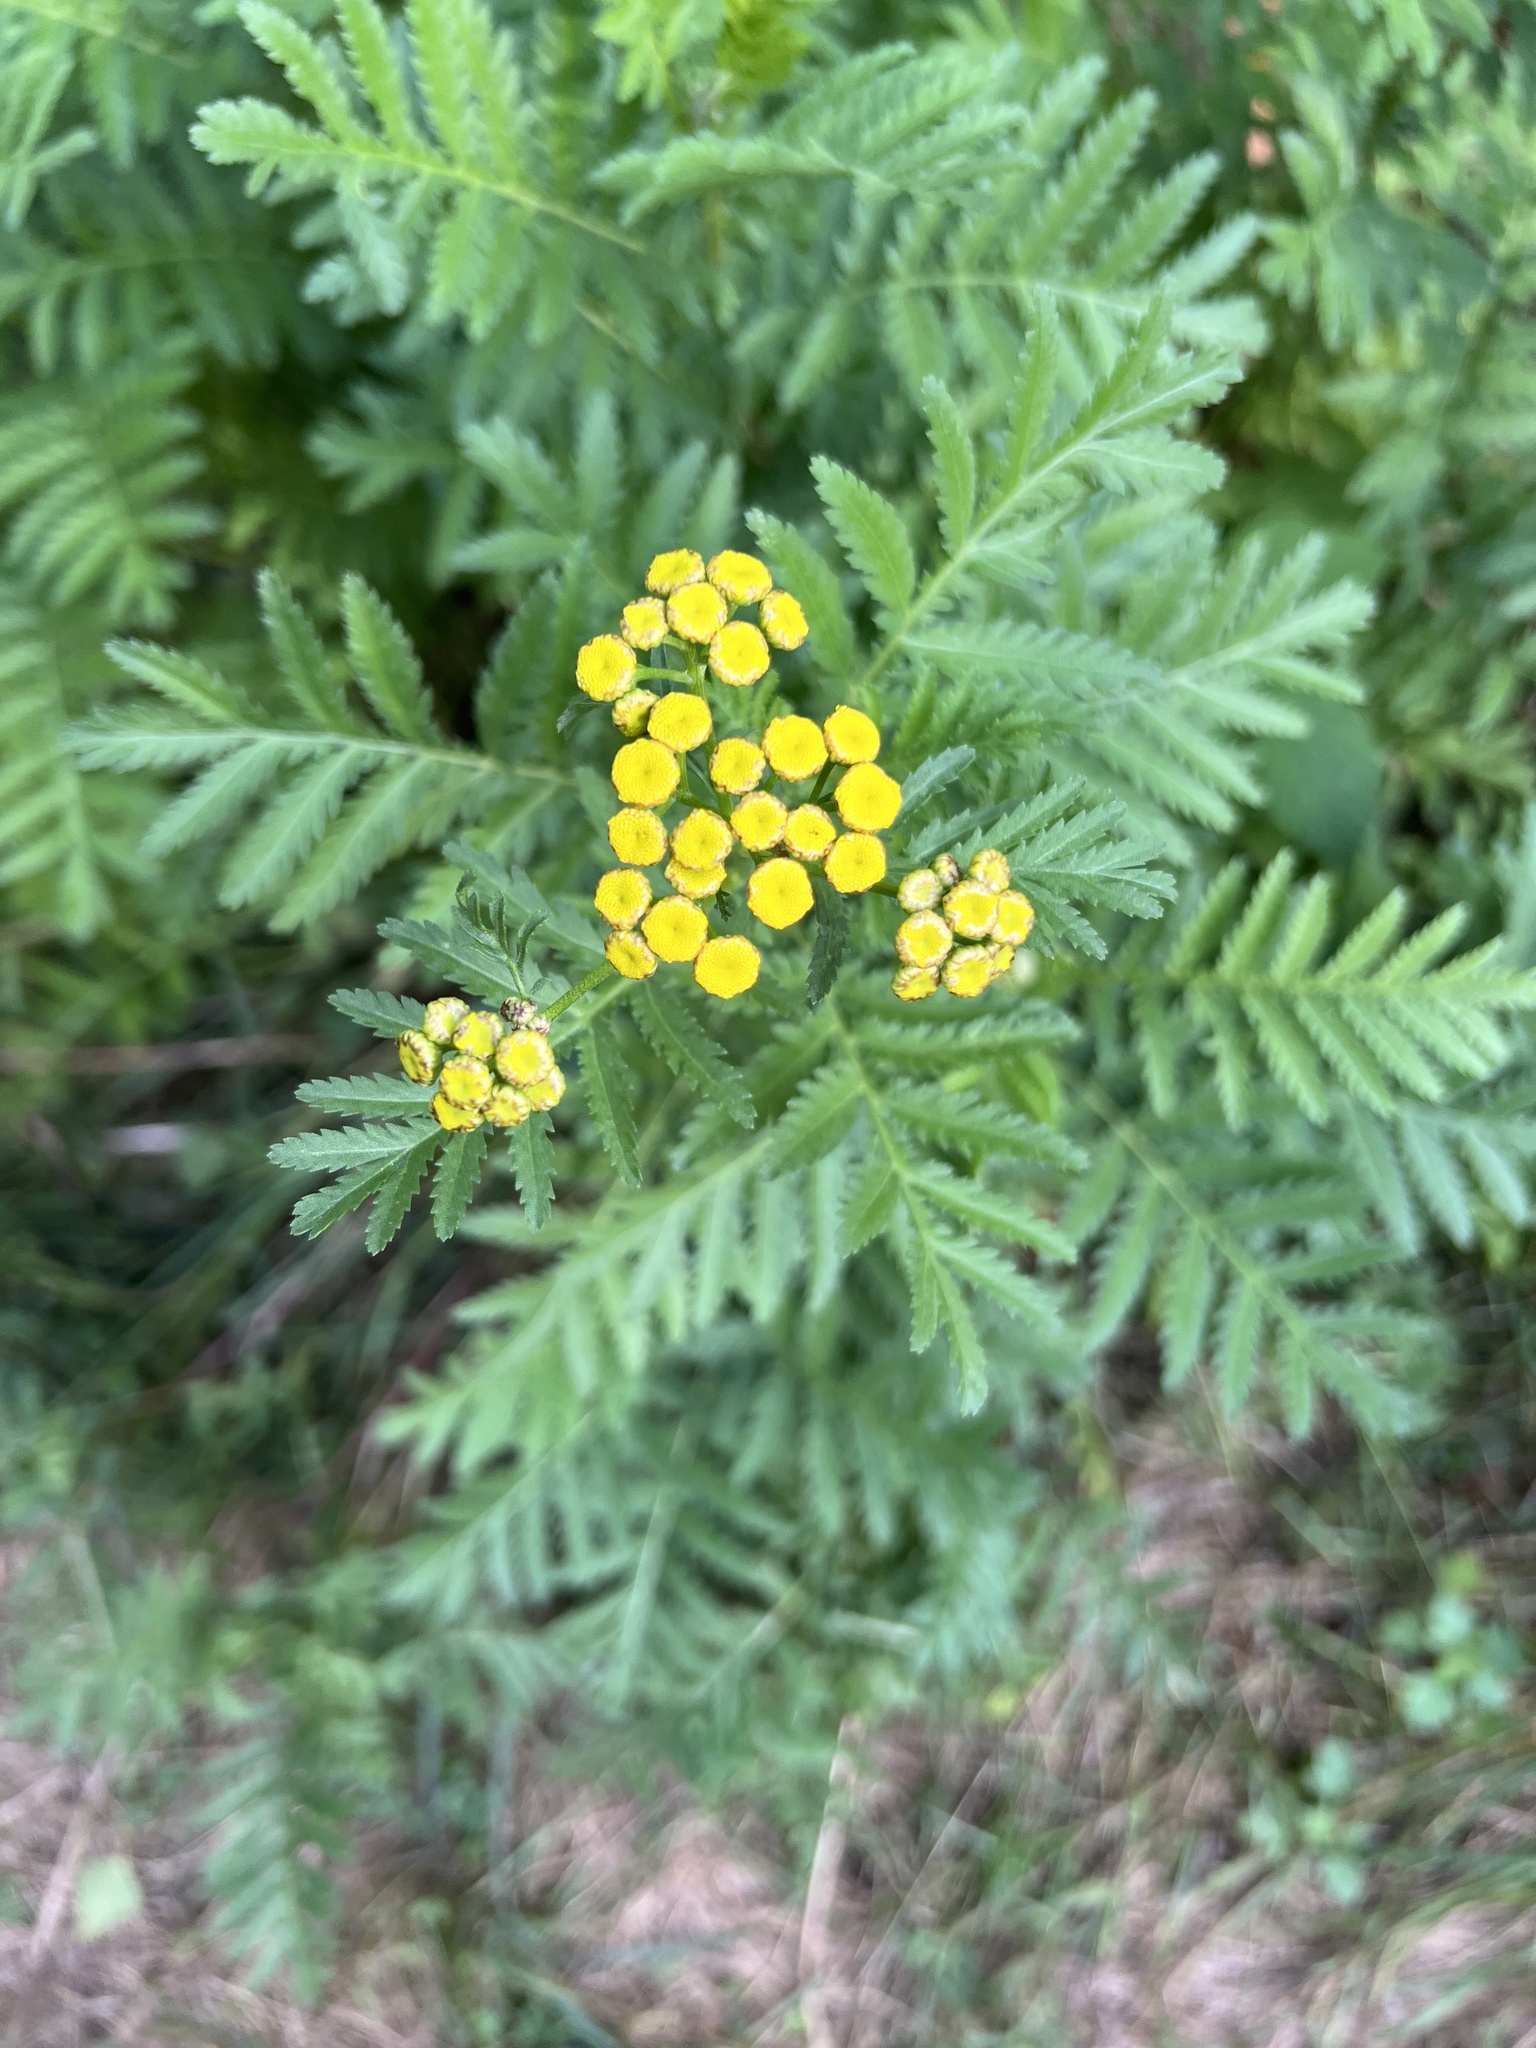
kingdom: Plantae
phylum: Tracheophyta
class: Magnoliopsida
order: Asterales
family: Asteraceae
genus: Tanacetum
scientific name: Tanacetum vulgare
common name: Common tansy
